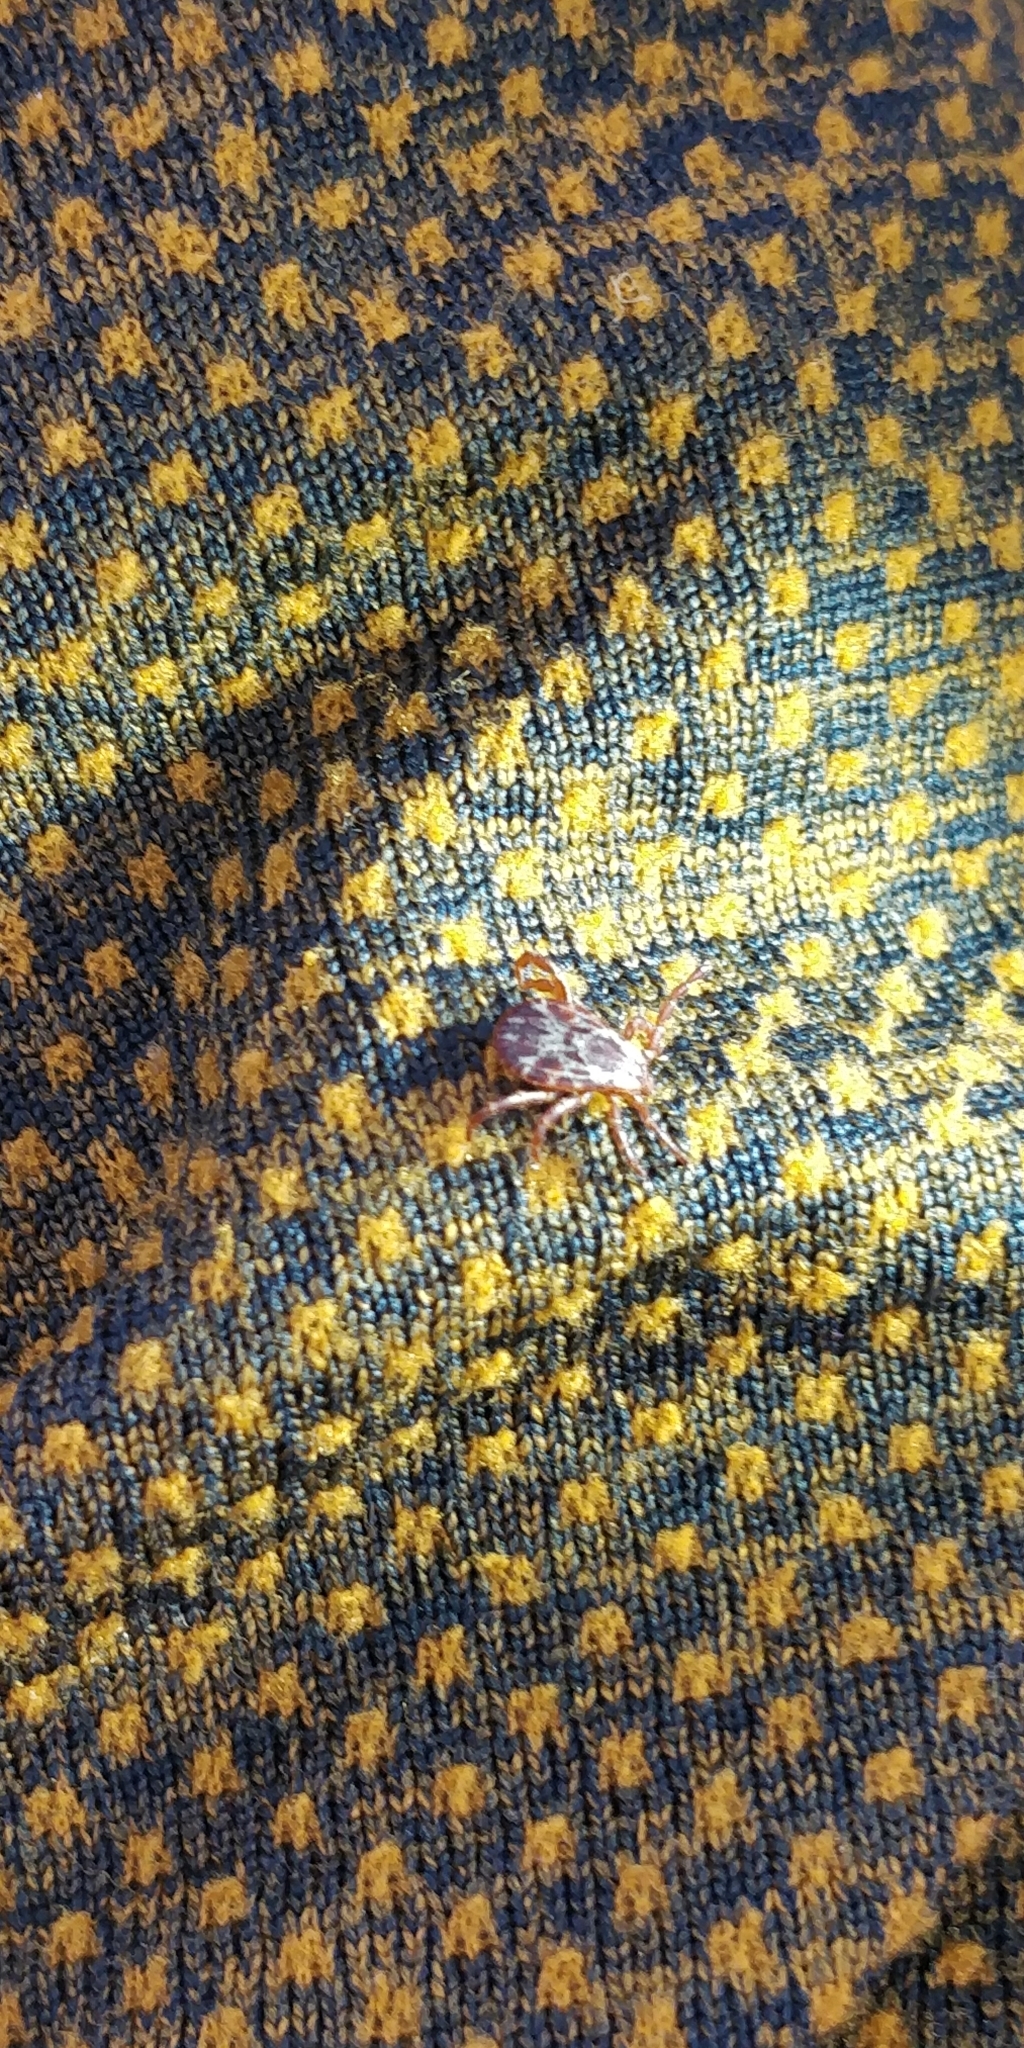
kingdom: Animalia
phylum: Arthropoda
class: Arachnida
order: Ixodida
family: Ixodidae
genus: Dermacentor
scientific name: Dermacentor andersoni
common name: Rocky mountain wood tick
